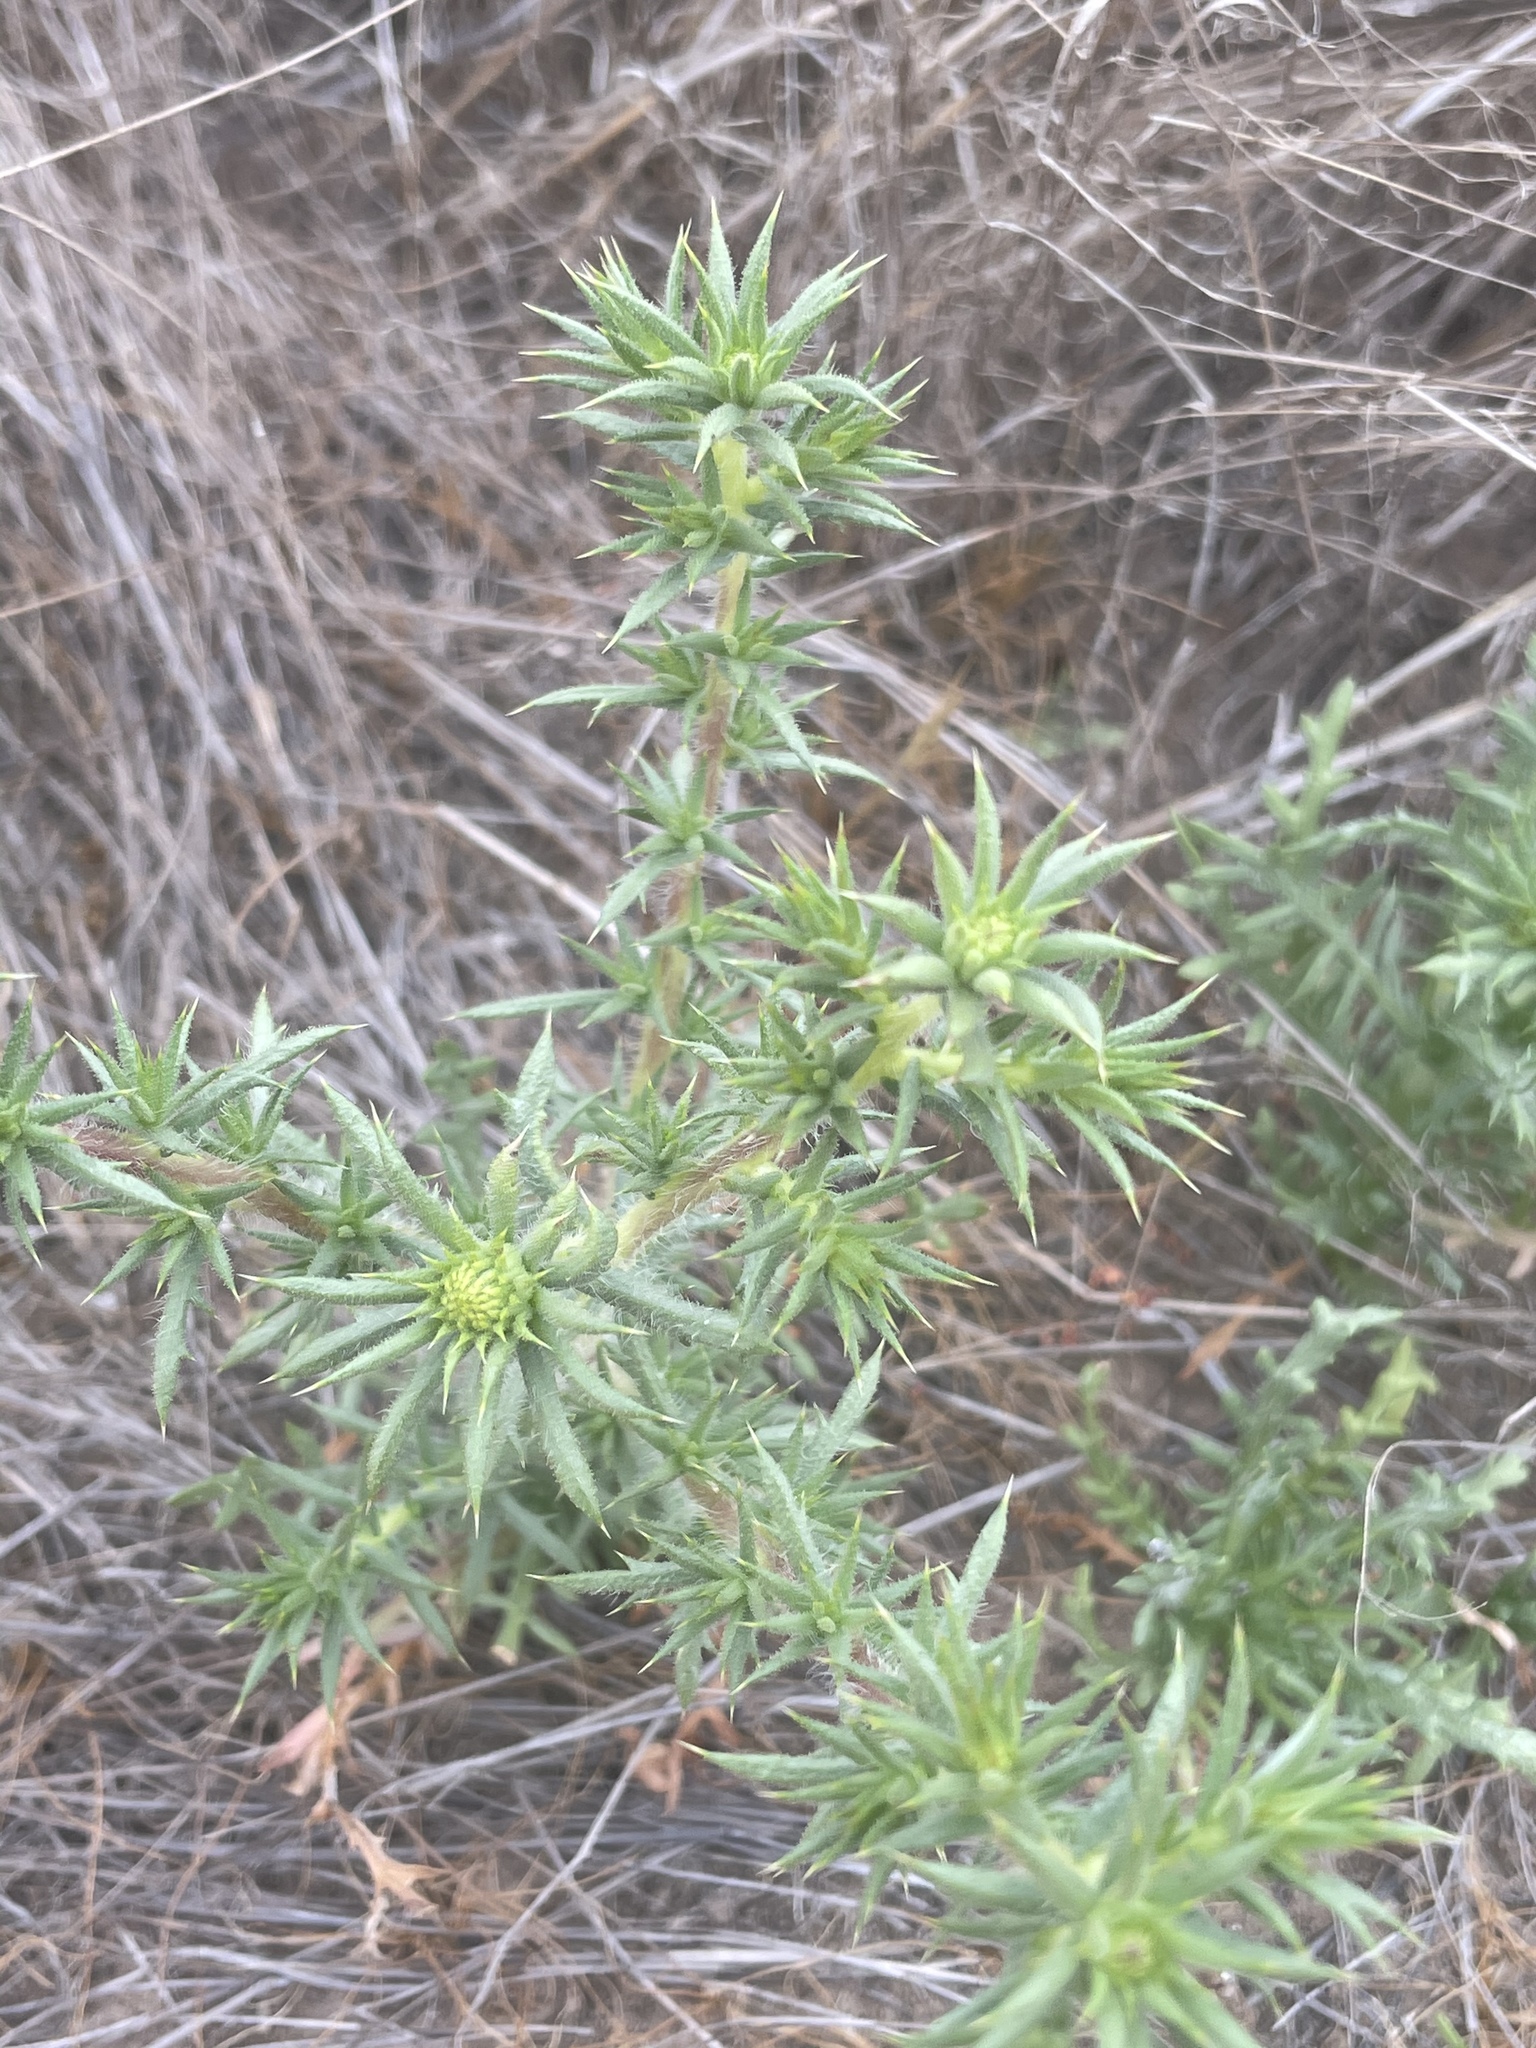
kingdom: Plantae
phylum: Tracheophyta
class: Magnoliopsida
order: Asterales
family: Asteraceae
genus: Centromadia
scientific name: Centromadia parryi
